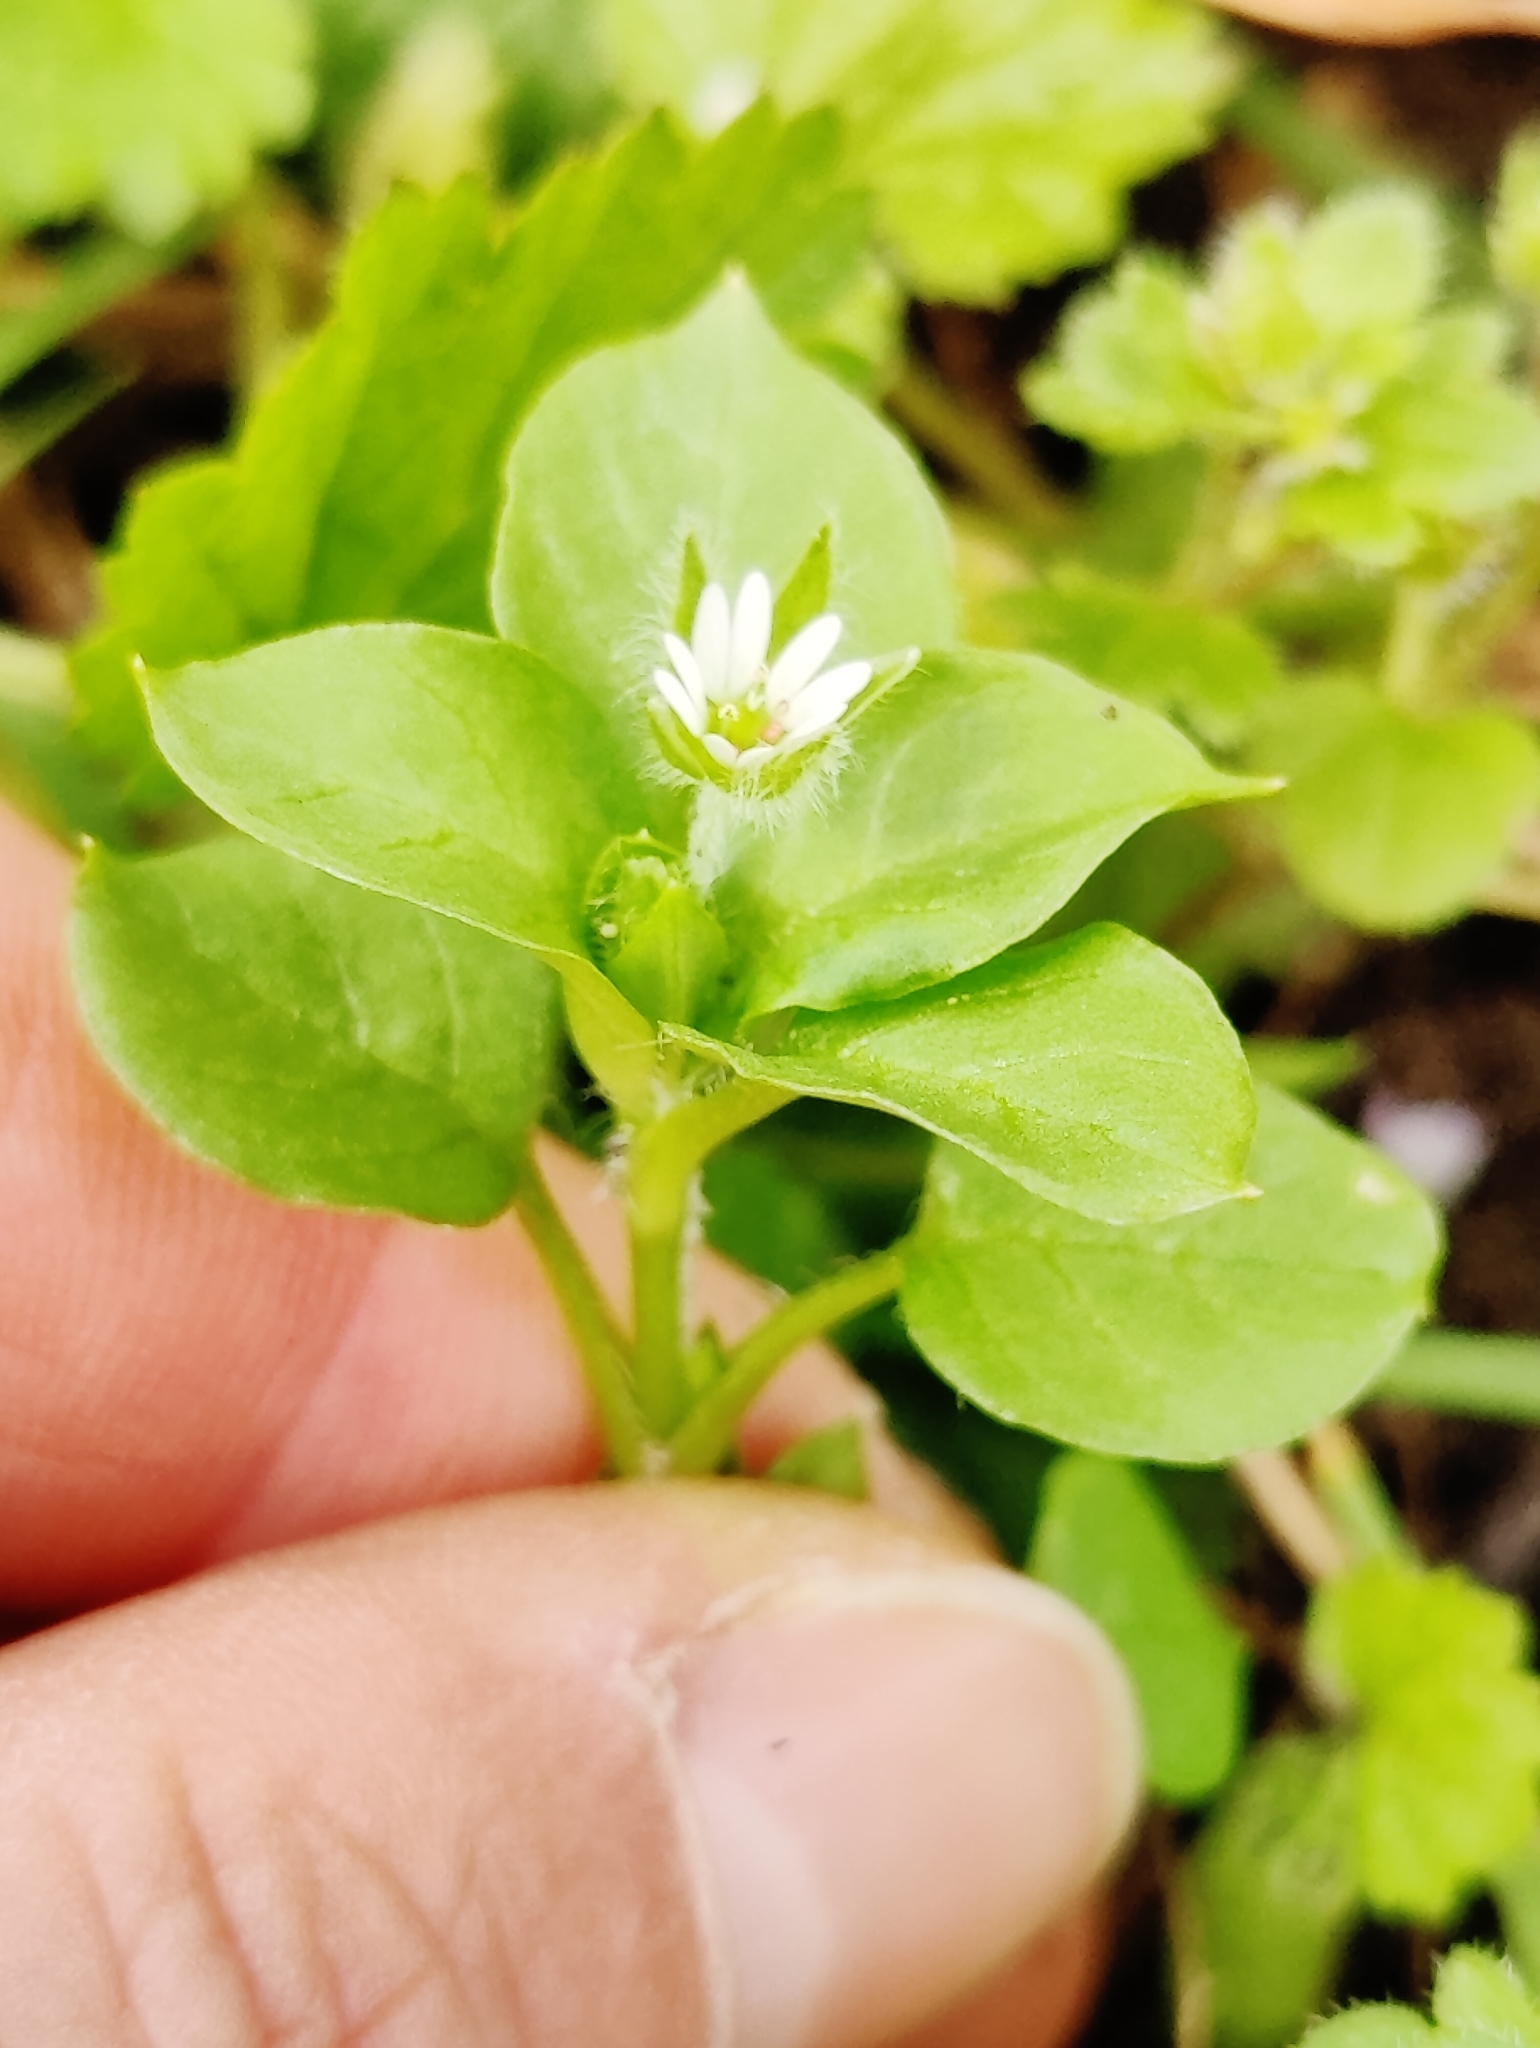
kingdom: Plantae
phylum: Tracheophyta
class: Magnoliopsida
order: Caryophyllales
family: Caryophyllaceae
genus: Stellaria
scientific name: Stellaria media
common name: Common chickweed
